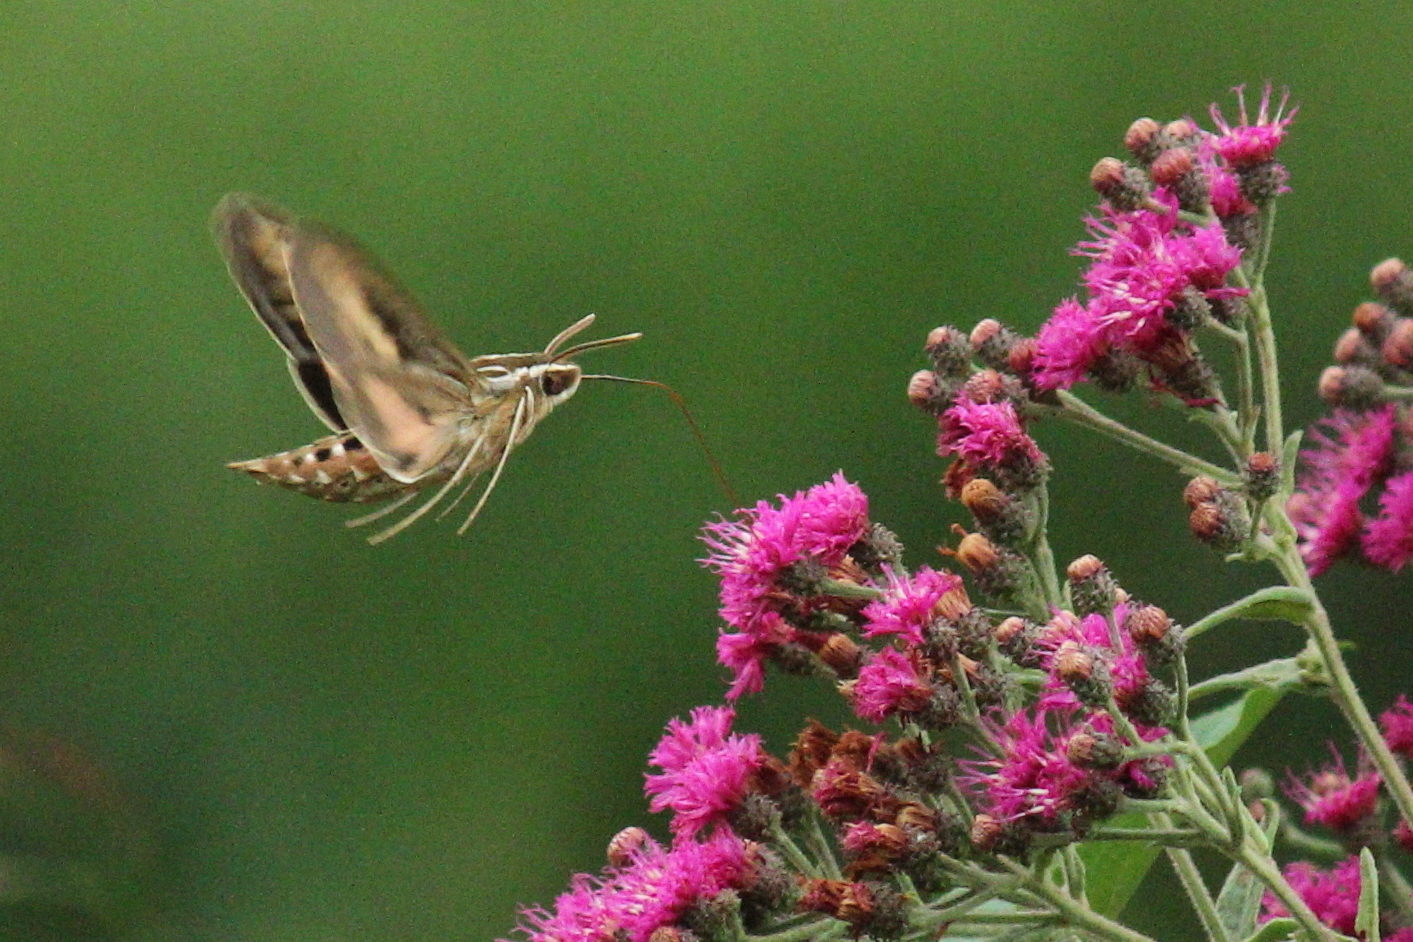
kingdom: Animalia
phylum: Arthropoda
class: Insecta
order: Lepidoptera
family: Sphingidae
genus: Hyles
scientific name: Hyles lineata
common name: White-lined sphinx
